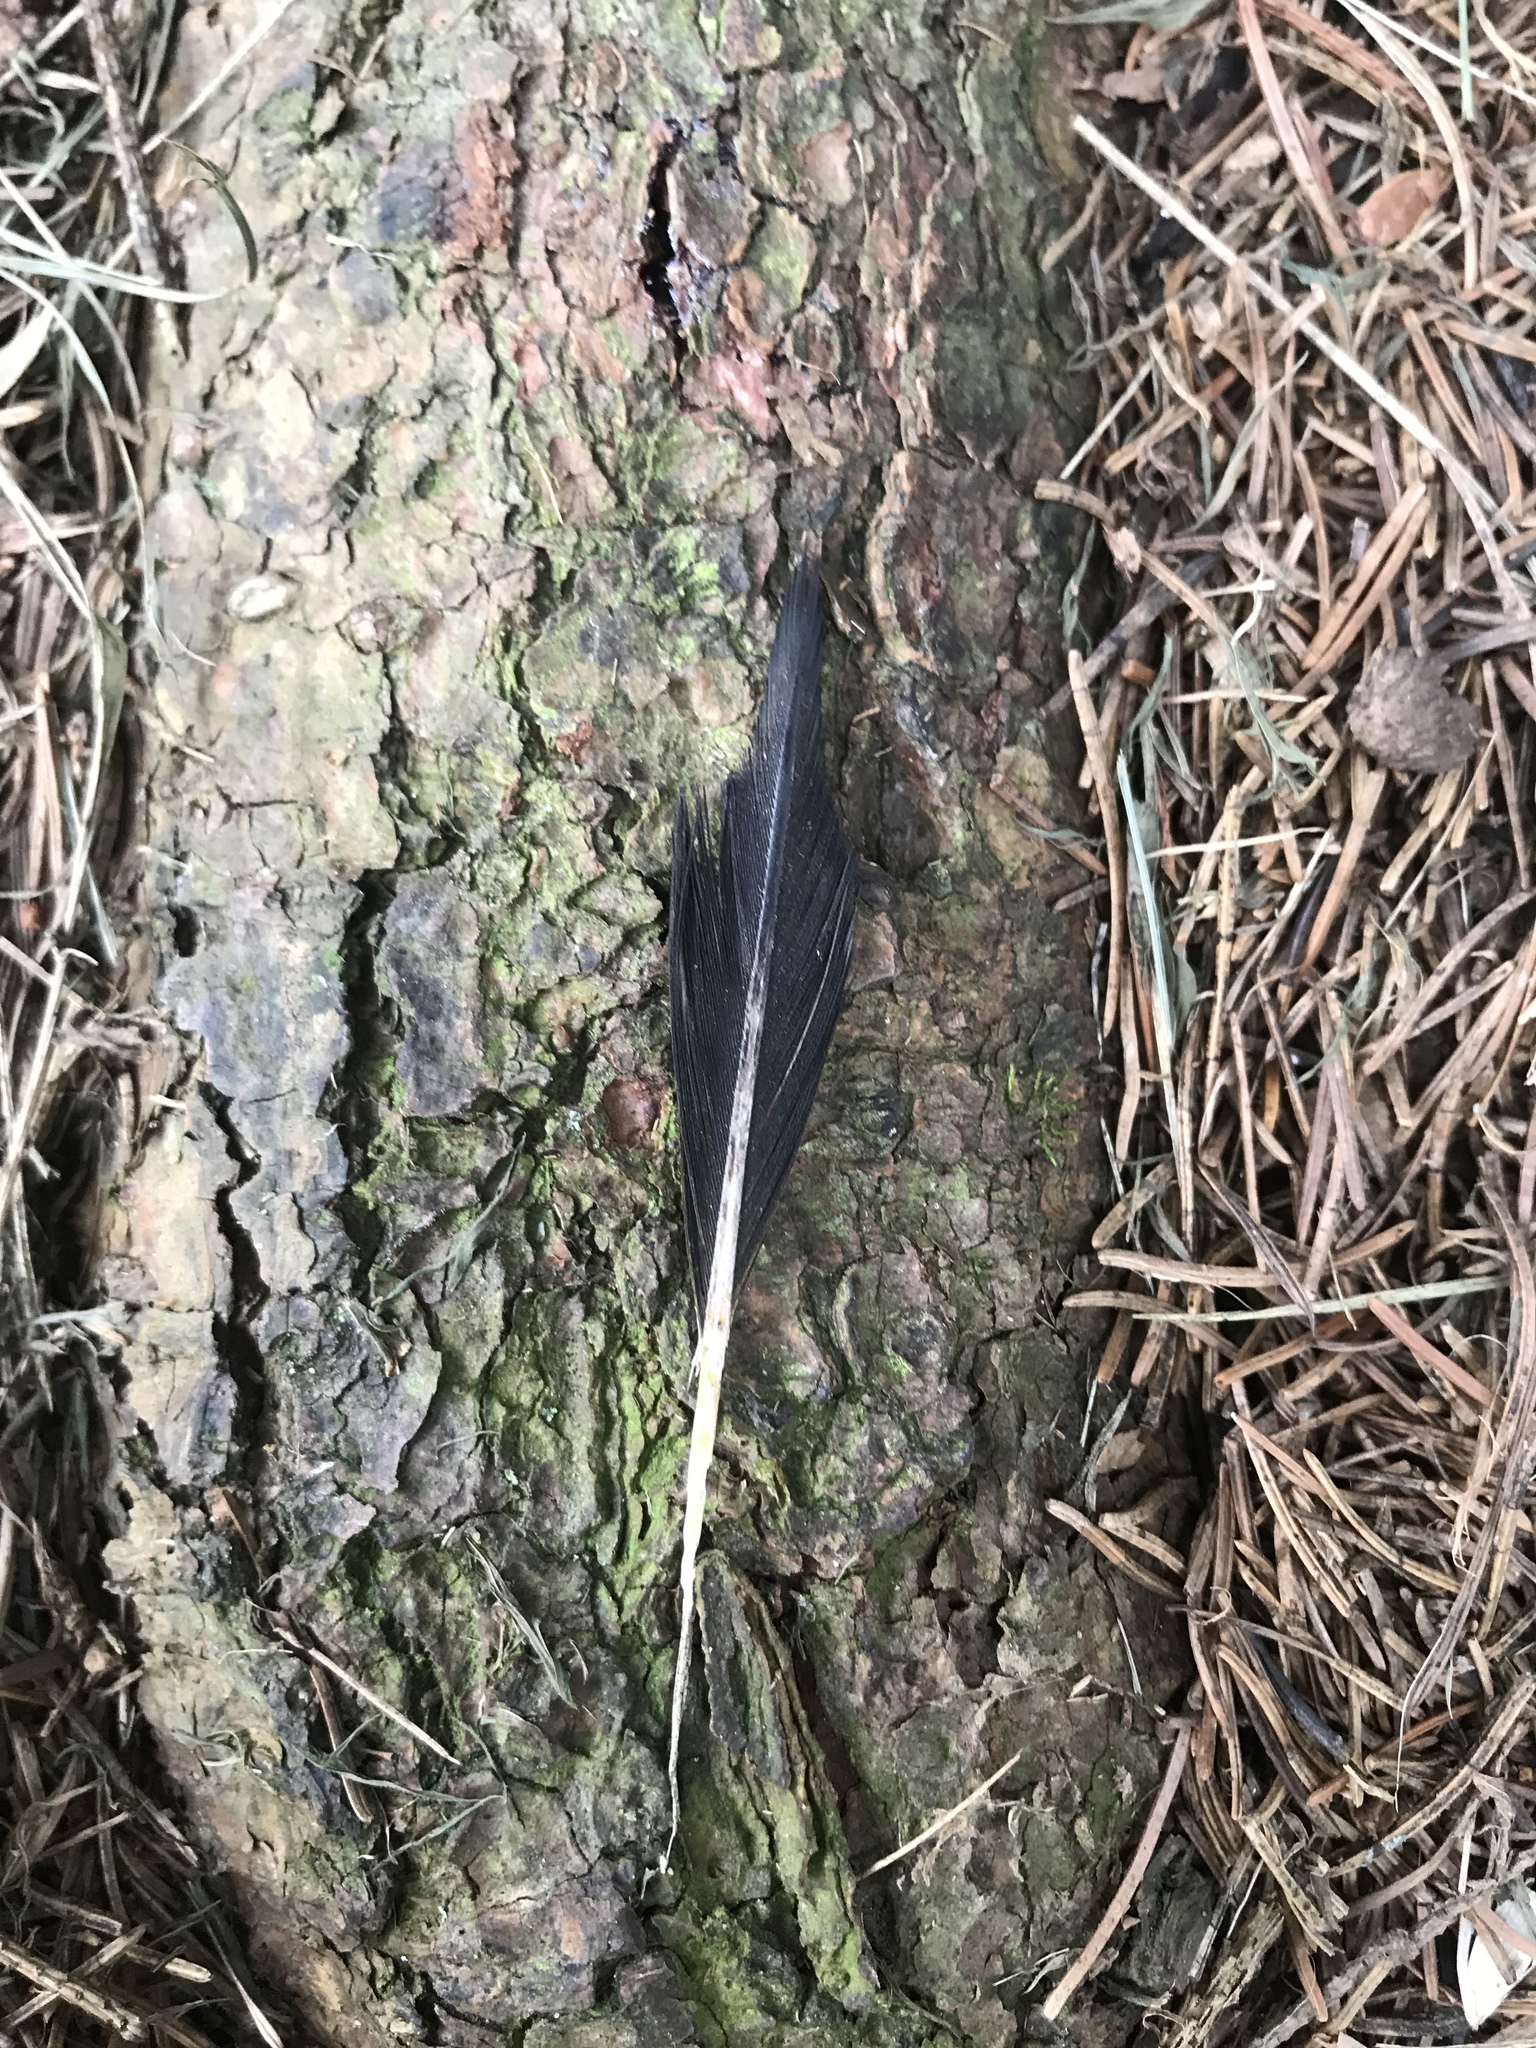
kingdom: Animalia
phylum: Chordata
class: Aves
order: Piciformes
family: Picidae
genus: Colaptes
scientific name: Colaptes auratus
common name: Northern flicker
